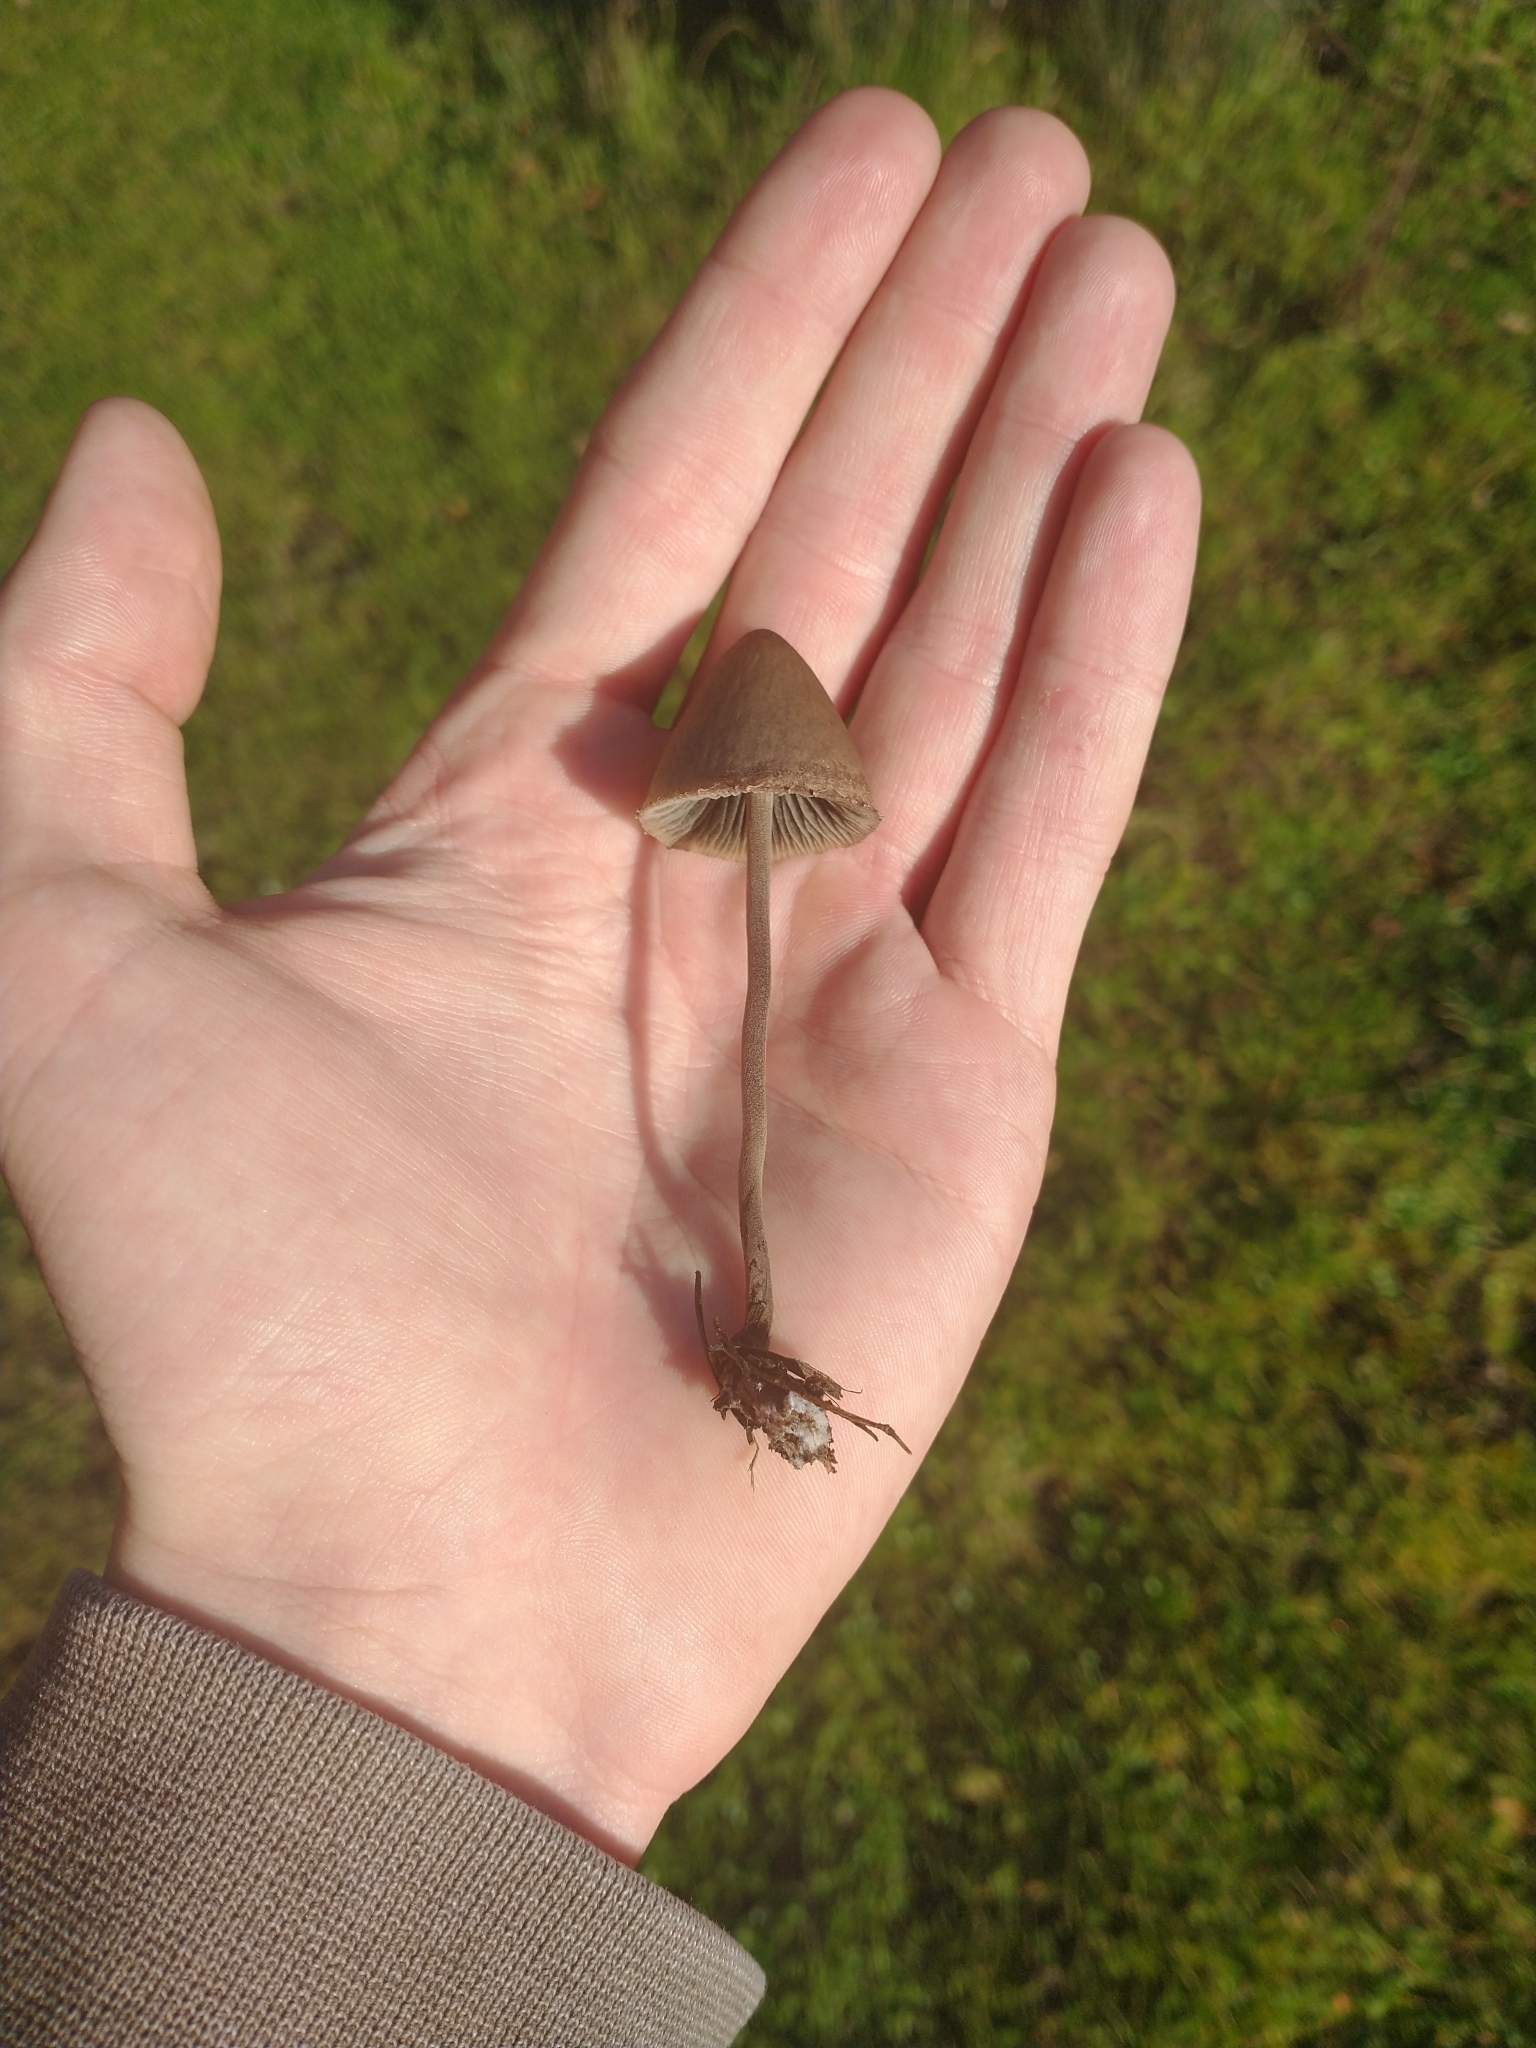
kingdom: Fungi
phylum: Basidiomycota
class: Agaricomycetes
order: Agaricales
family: Bolbitiaceae
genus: Panaeolus
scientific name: Panaeolus papilionaceus
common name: Petticoat mottlegill
